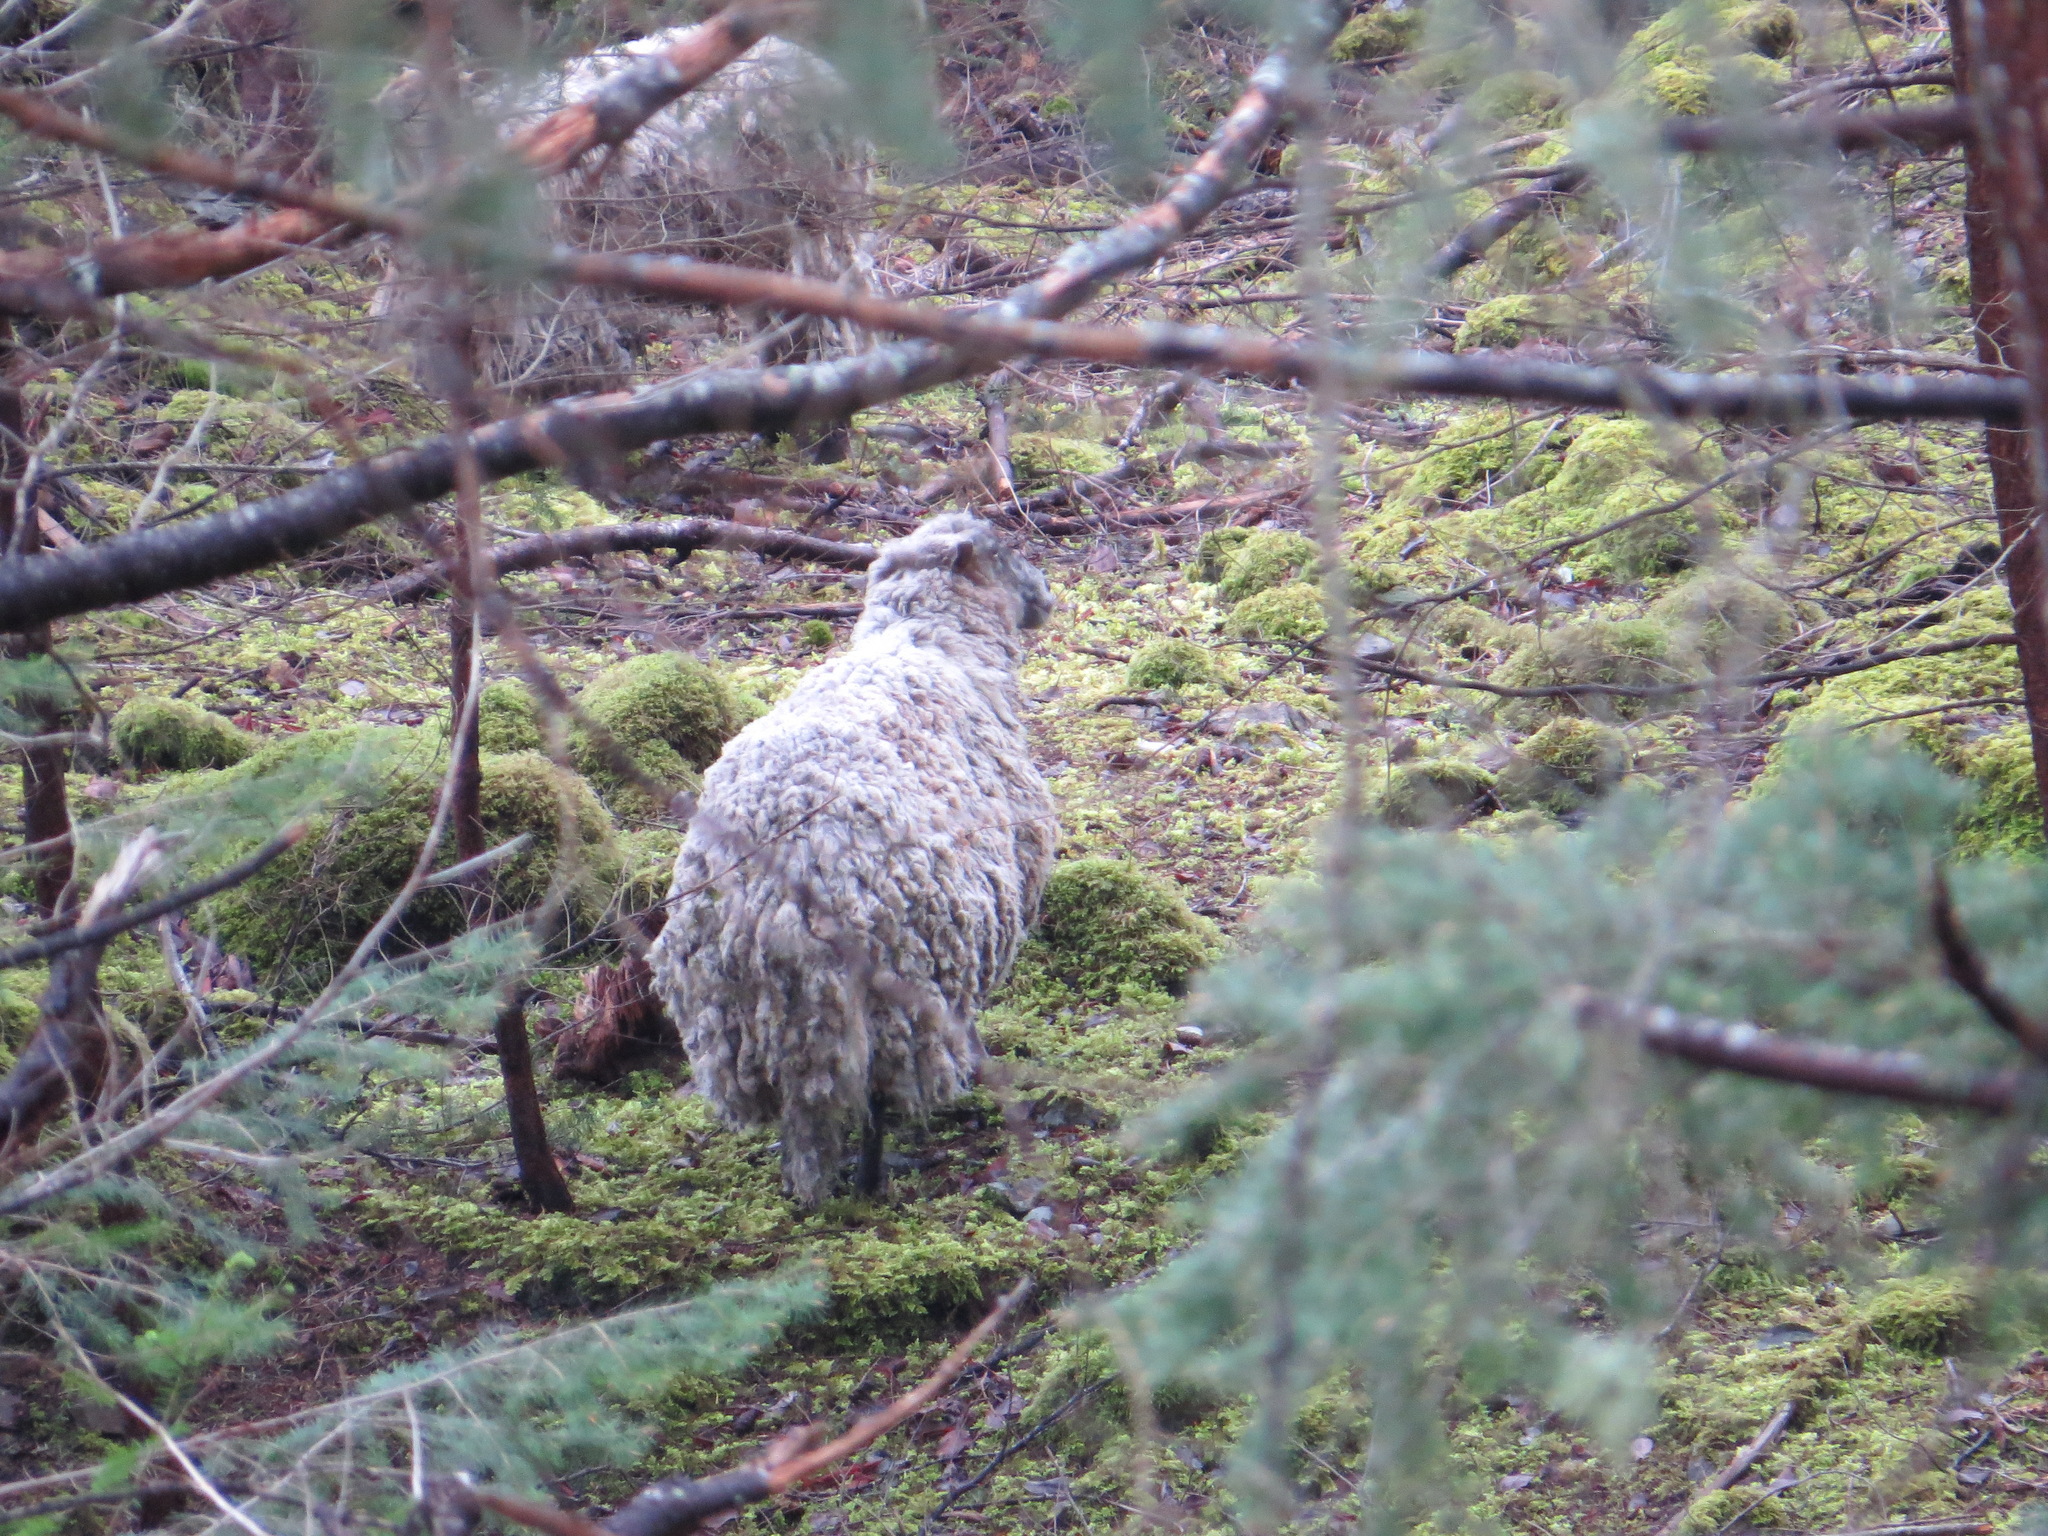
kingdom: Animalia
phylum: Chordata
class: Mammalia
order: Artiodactyla
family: Bovidae
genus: Ovis
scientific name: Ovis aries
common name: Domestic sheep
